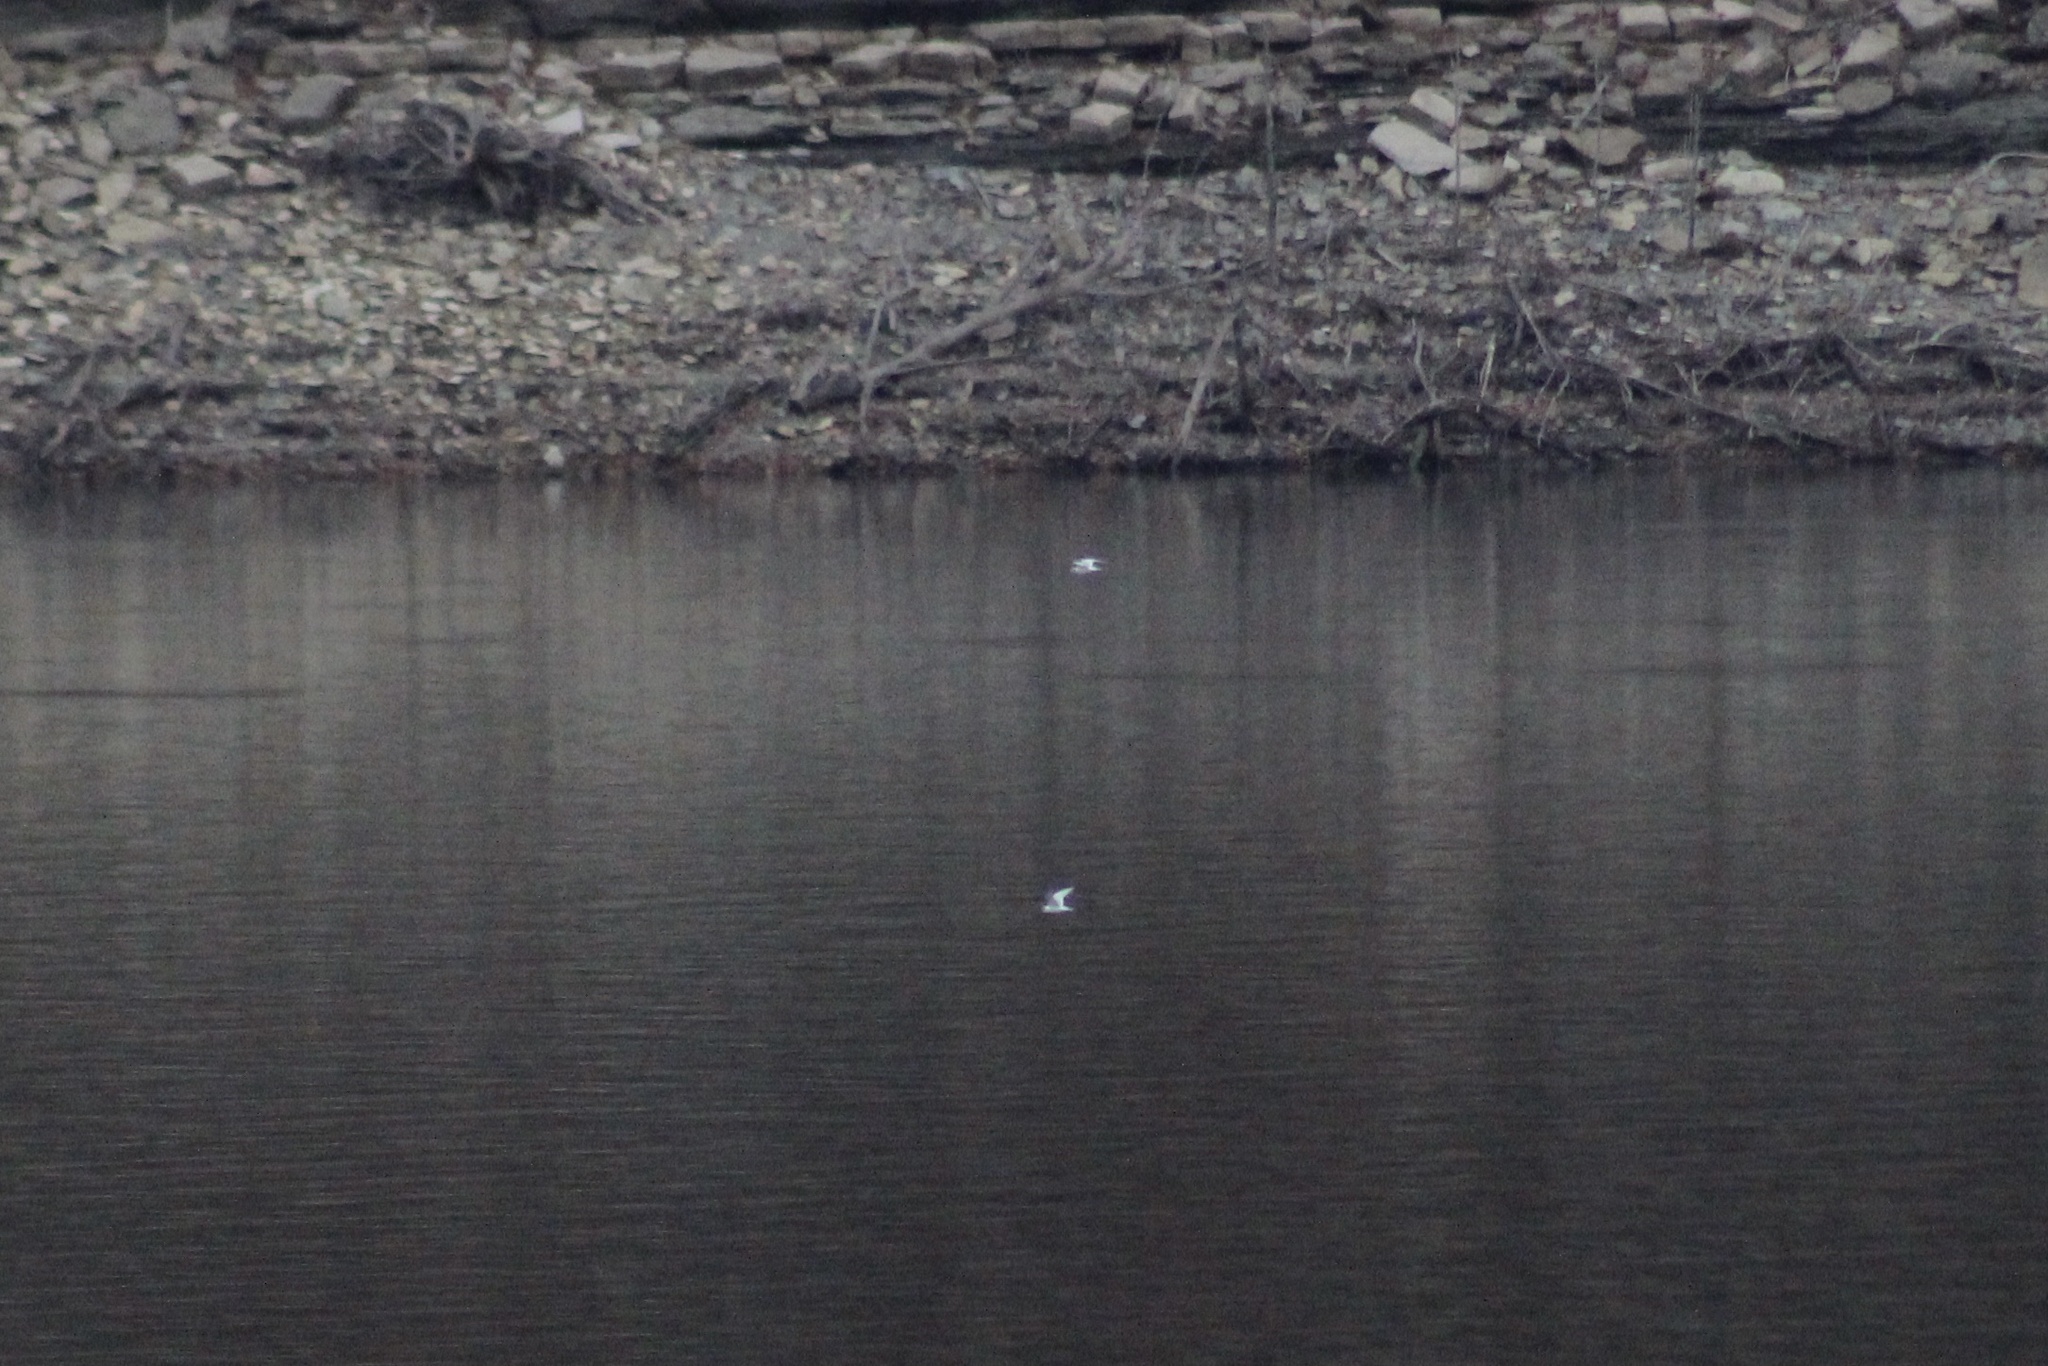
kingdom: Animalia
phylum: Chordata
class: Aves
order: Charadriiformes
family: Laridae
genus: Sterna
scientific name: Sterna forsteri
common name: Forster's tern
